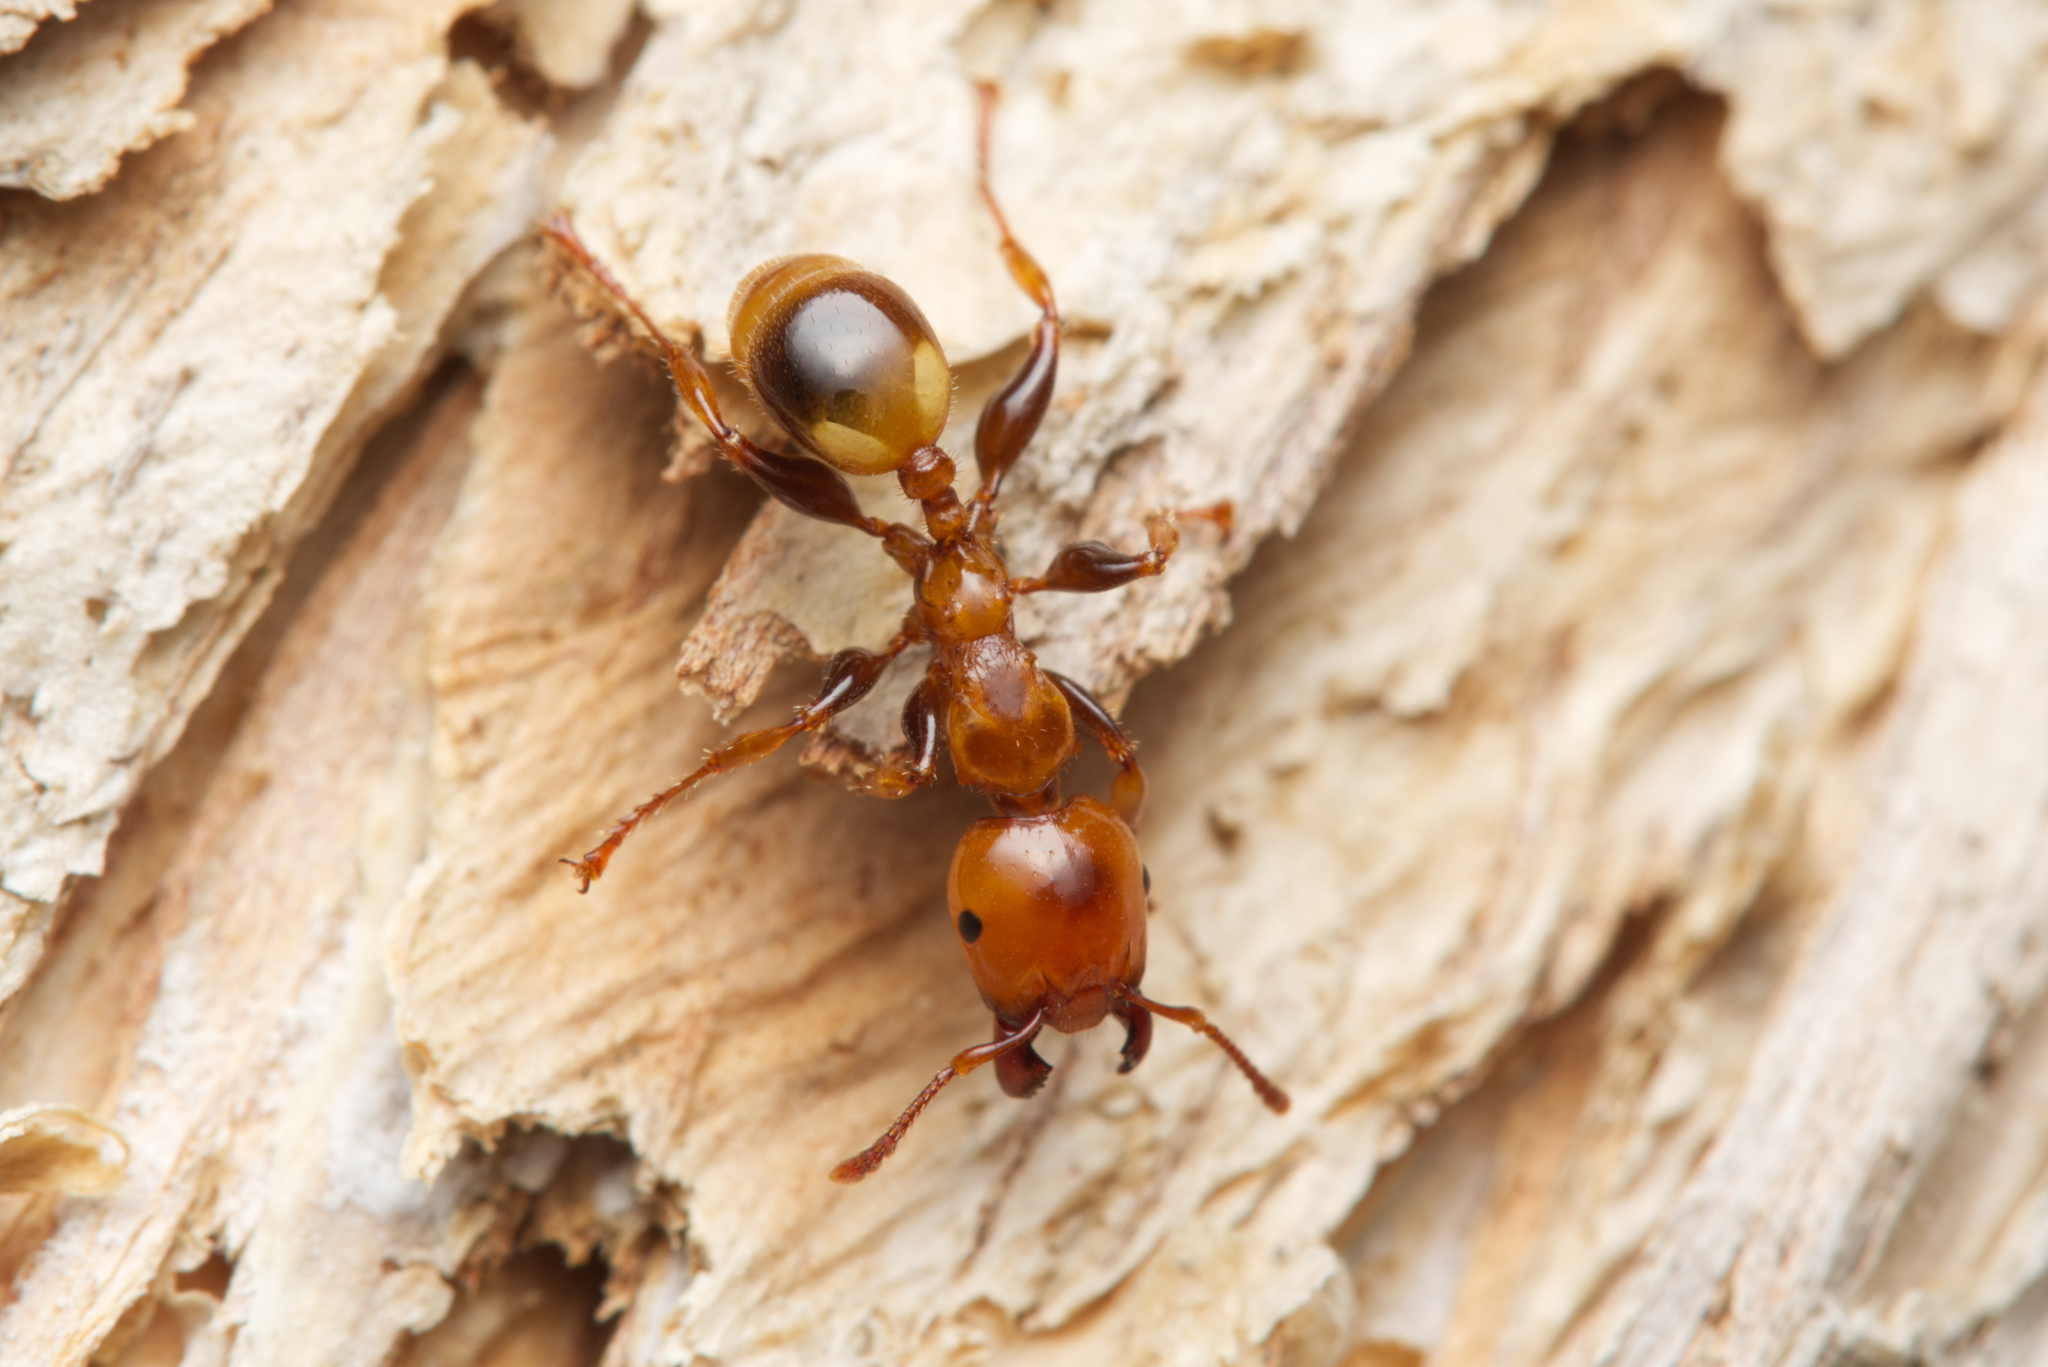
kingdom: Animalia
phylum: Arthropoda
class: Insecta
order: Hymenoptera
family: Formicidae
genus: Podomyrma
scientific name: Podomyrma femorata
